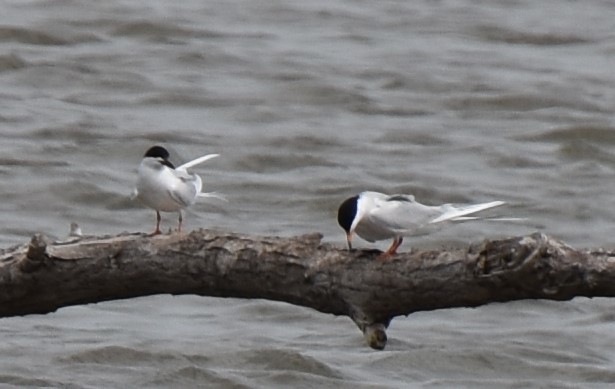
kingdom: Animalia
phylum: Chordata
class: Aves
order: Charadriiformes
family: Laridae
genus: Sterna
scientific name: Sterna forsteri
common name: Forster's tern
